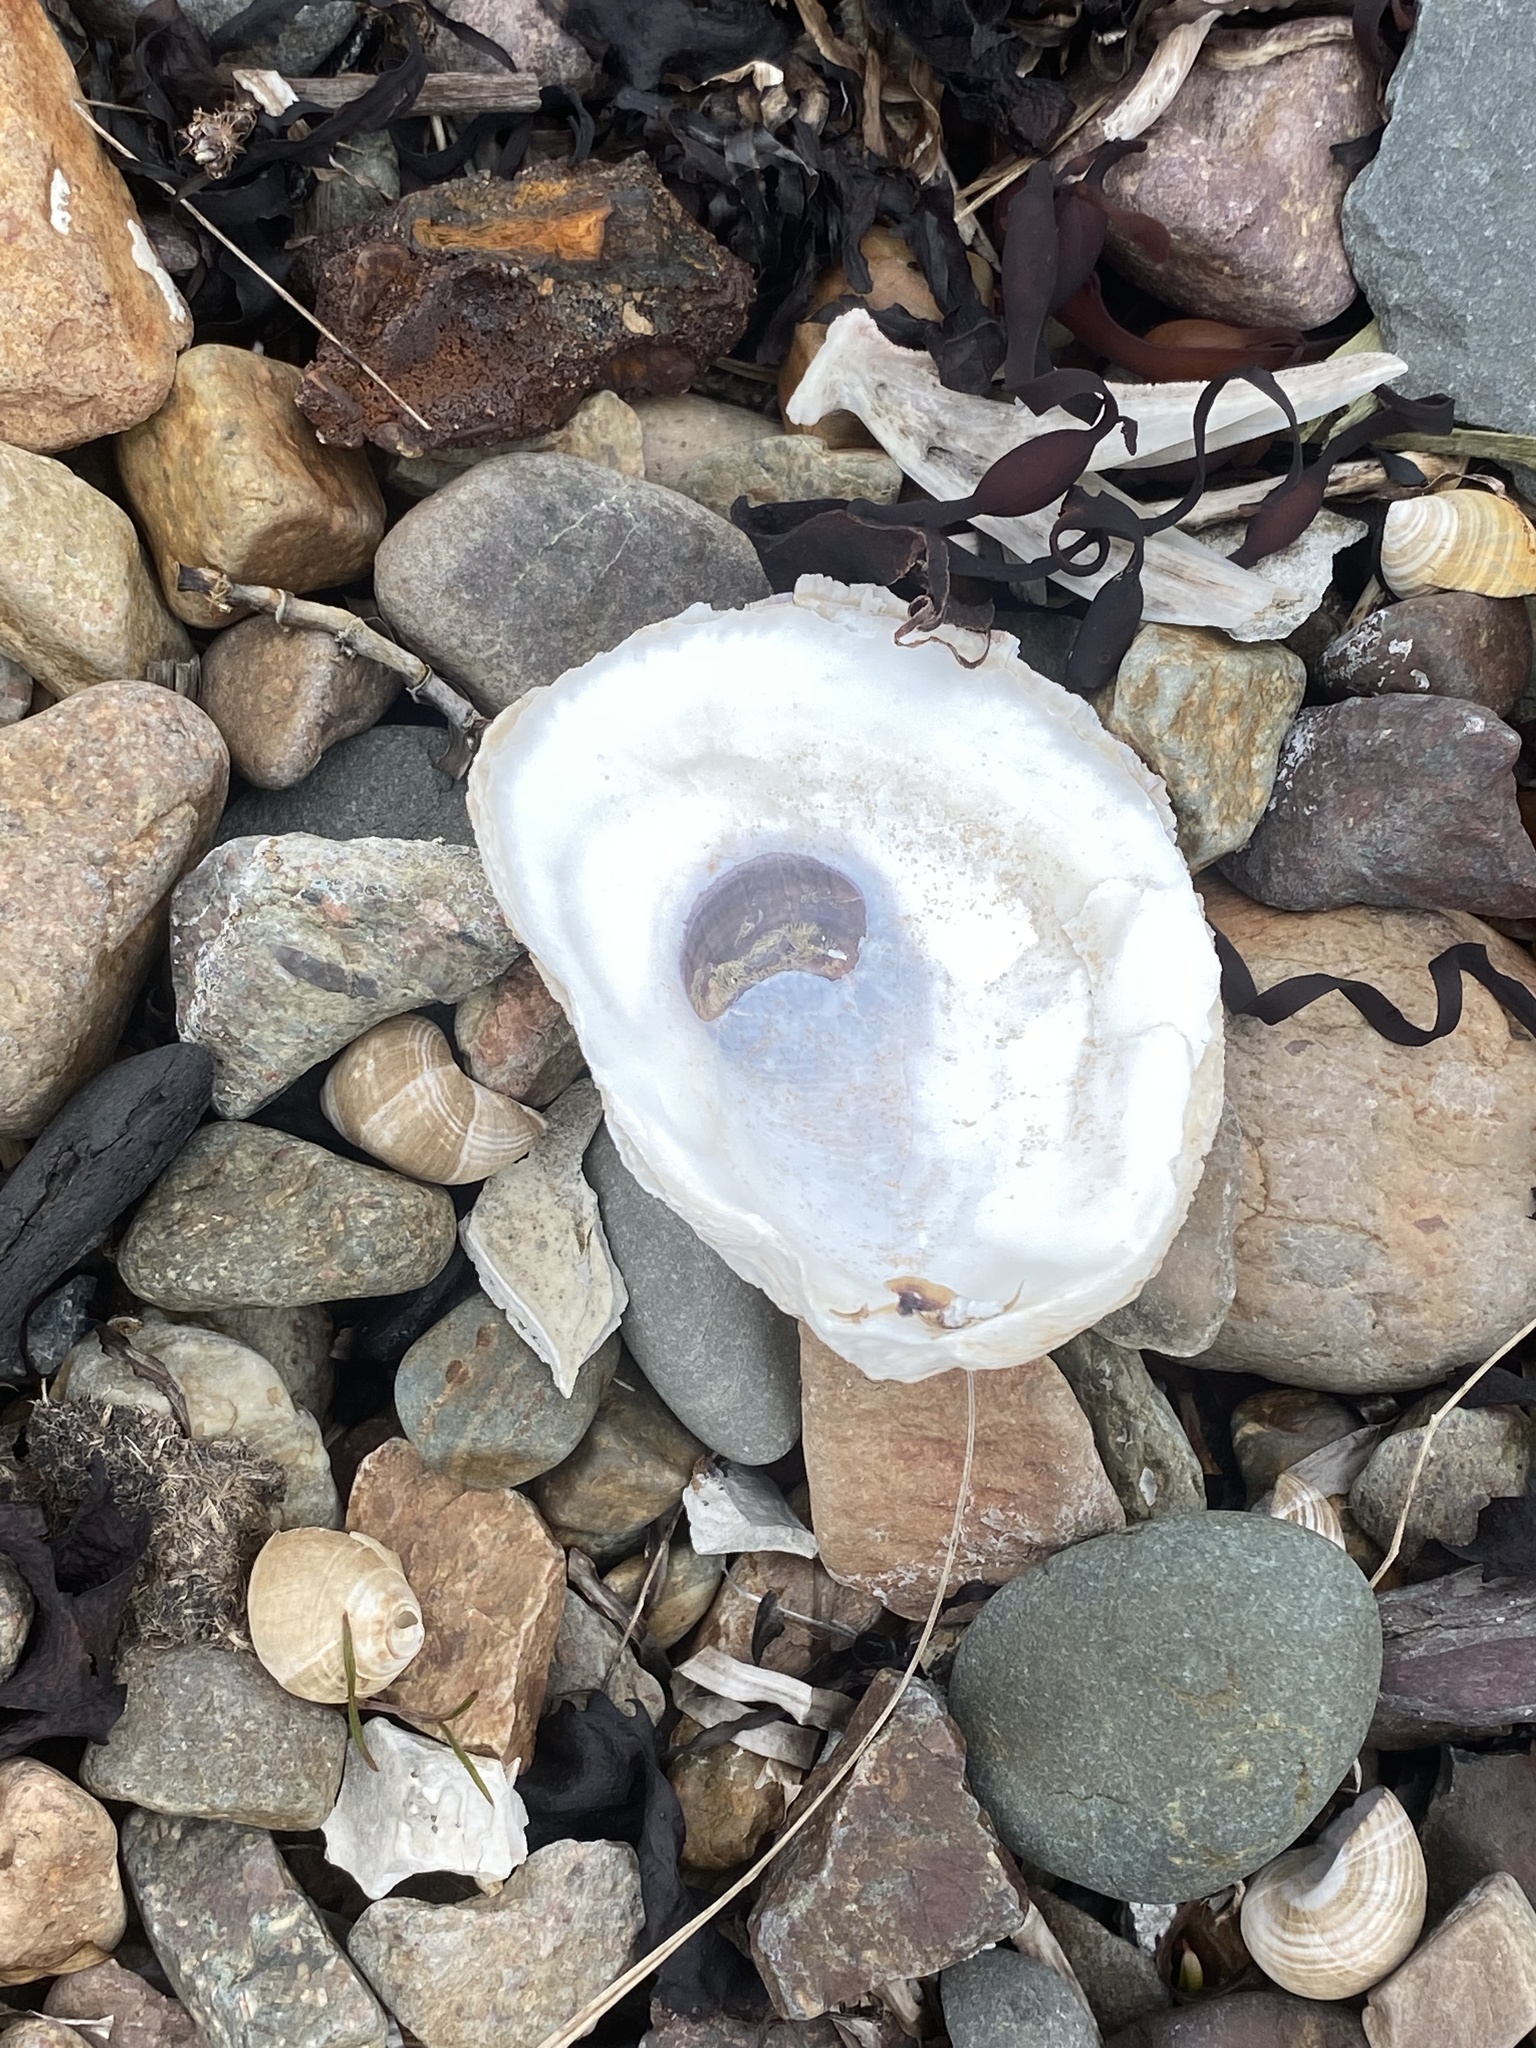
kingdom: Animalia
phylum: Mollusca
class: Bivalvia
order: Ostreida
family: Ostreidae
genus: Crassostrea
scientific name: Crassostrea virginica
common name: American oyster
